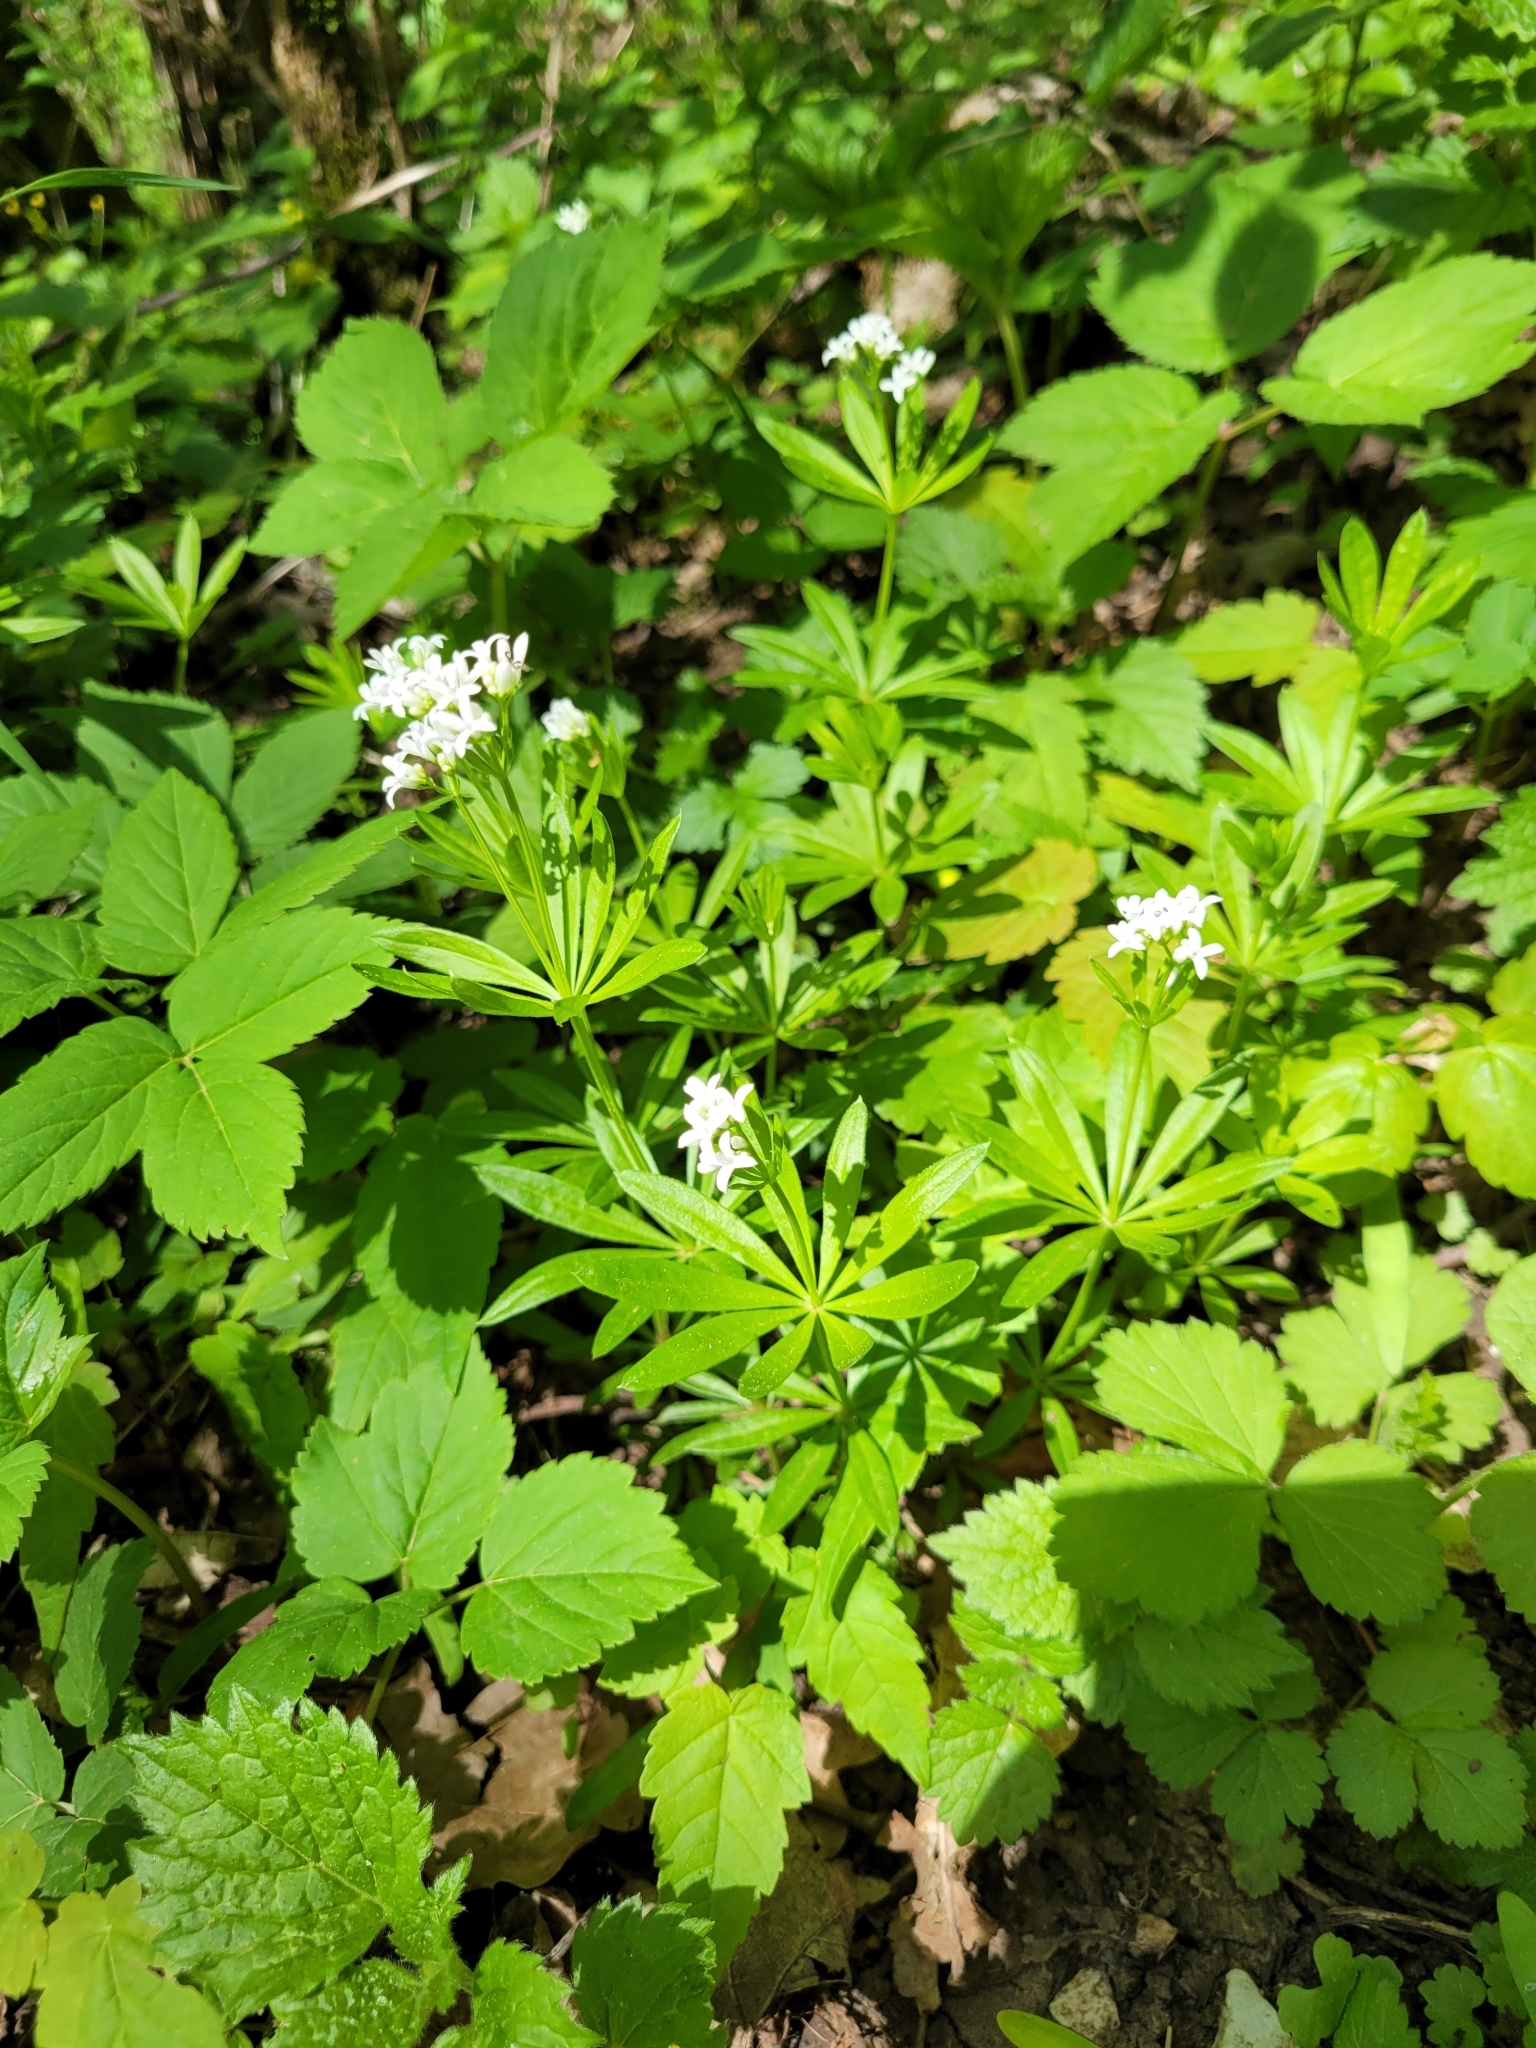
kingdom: Plantae
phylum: Tracheophyta
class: Magnoliopsida
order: Gentianales
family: Rubiaceae
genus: Galium
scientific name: Galium odoratum
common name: Sweet woodruff
